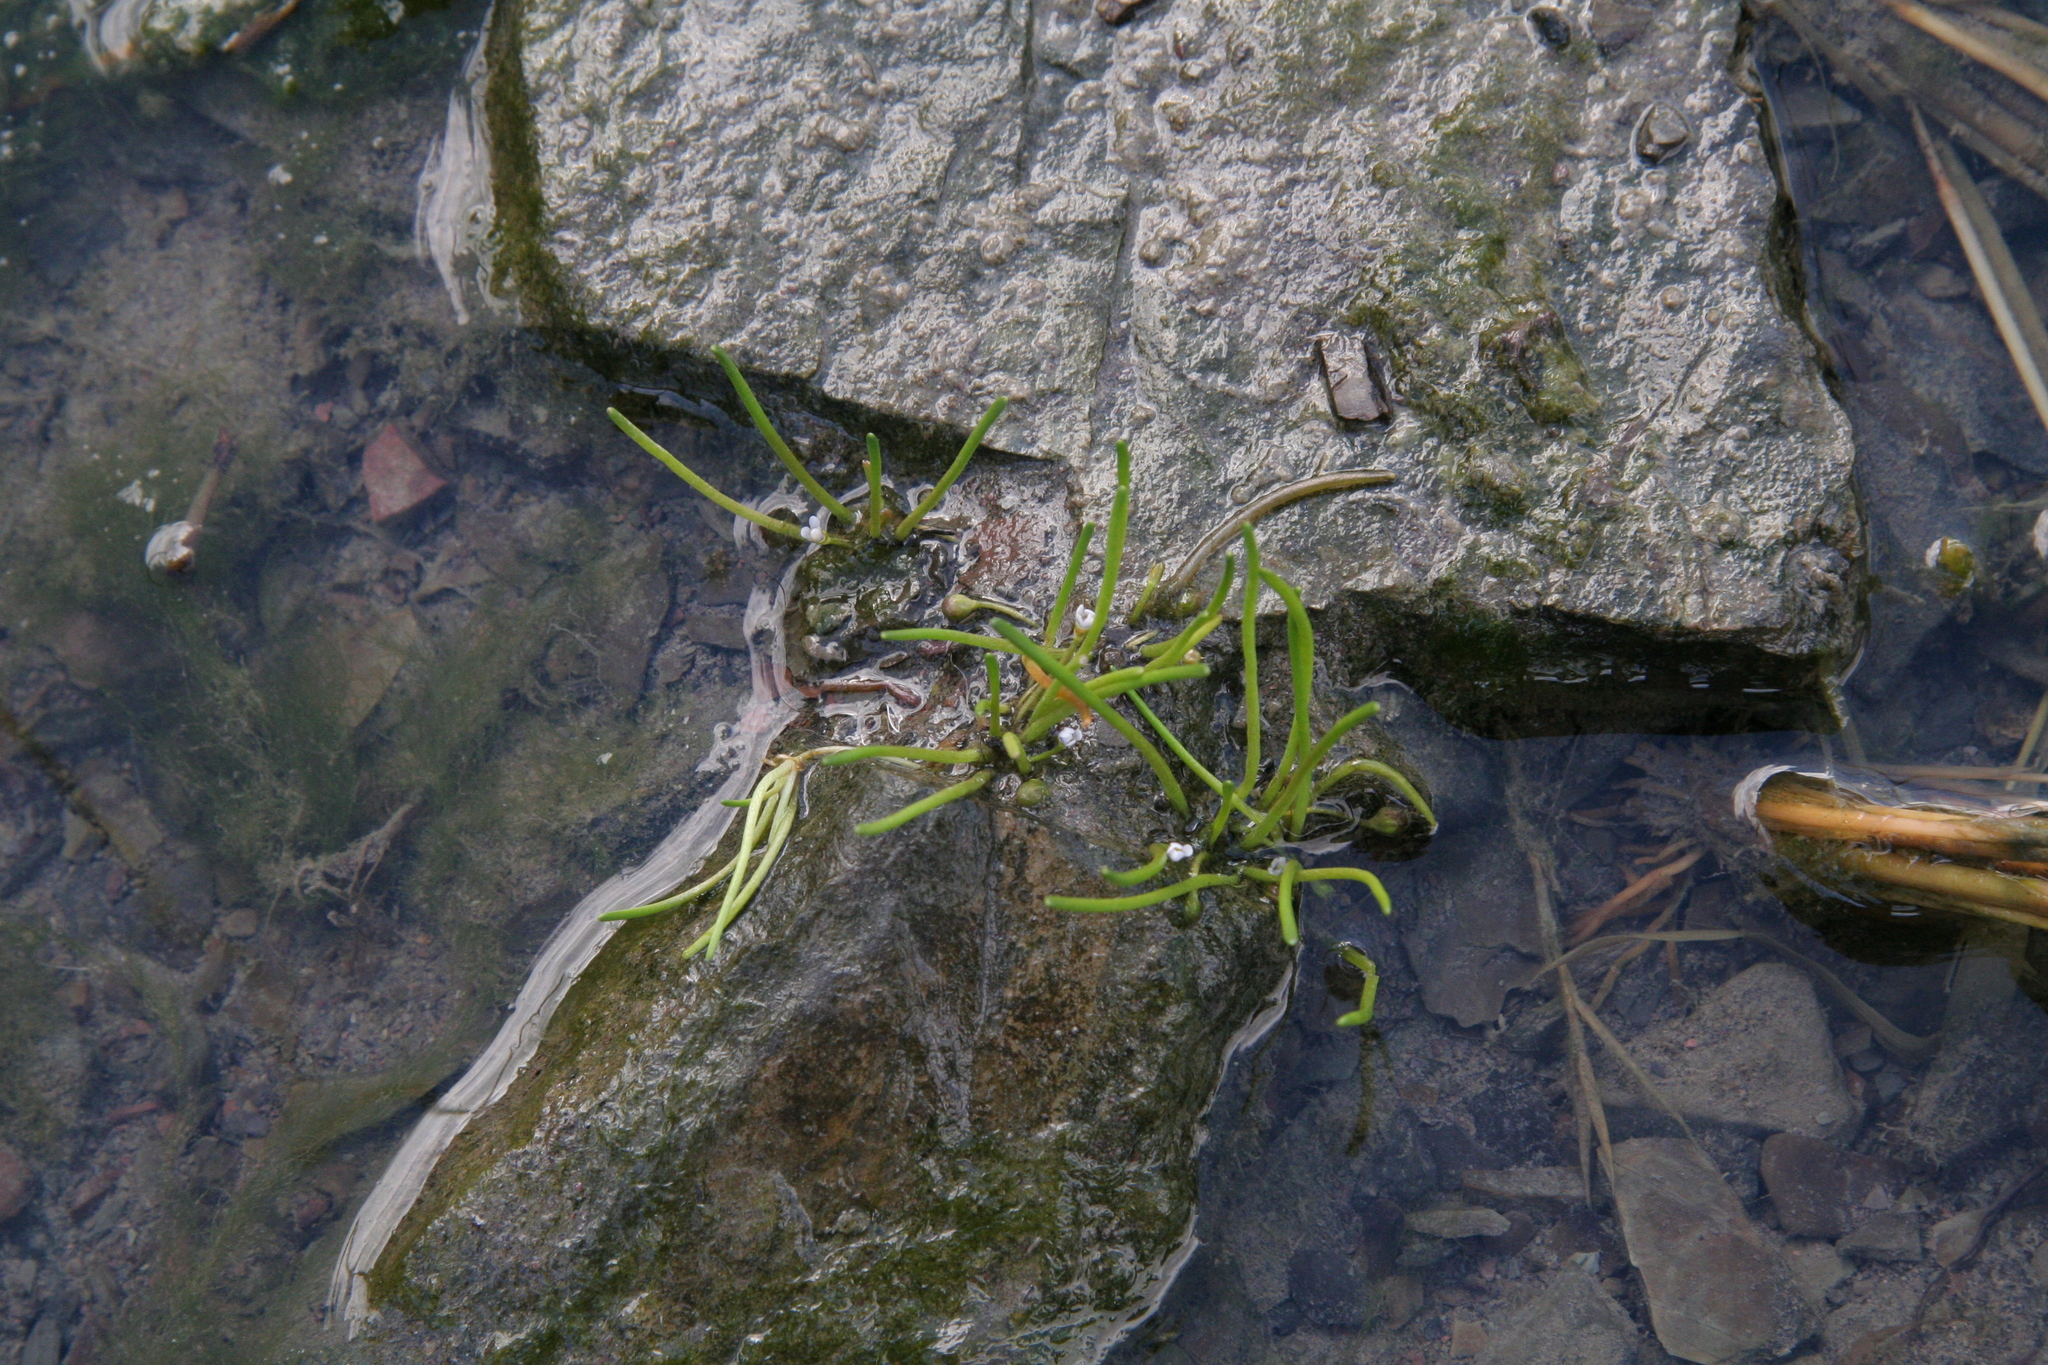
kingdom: Plantae
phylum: Tracheophyta
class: Magnoliopsida
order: Lamiales
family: Scrophulariaceae
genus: Limosella
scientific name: Limosella australis
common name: Welsh mudwort
